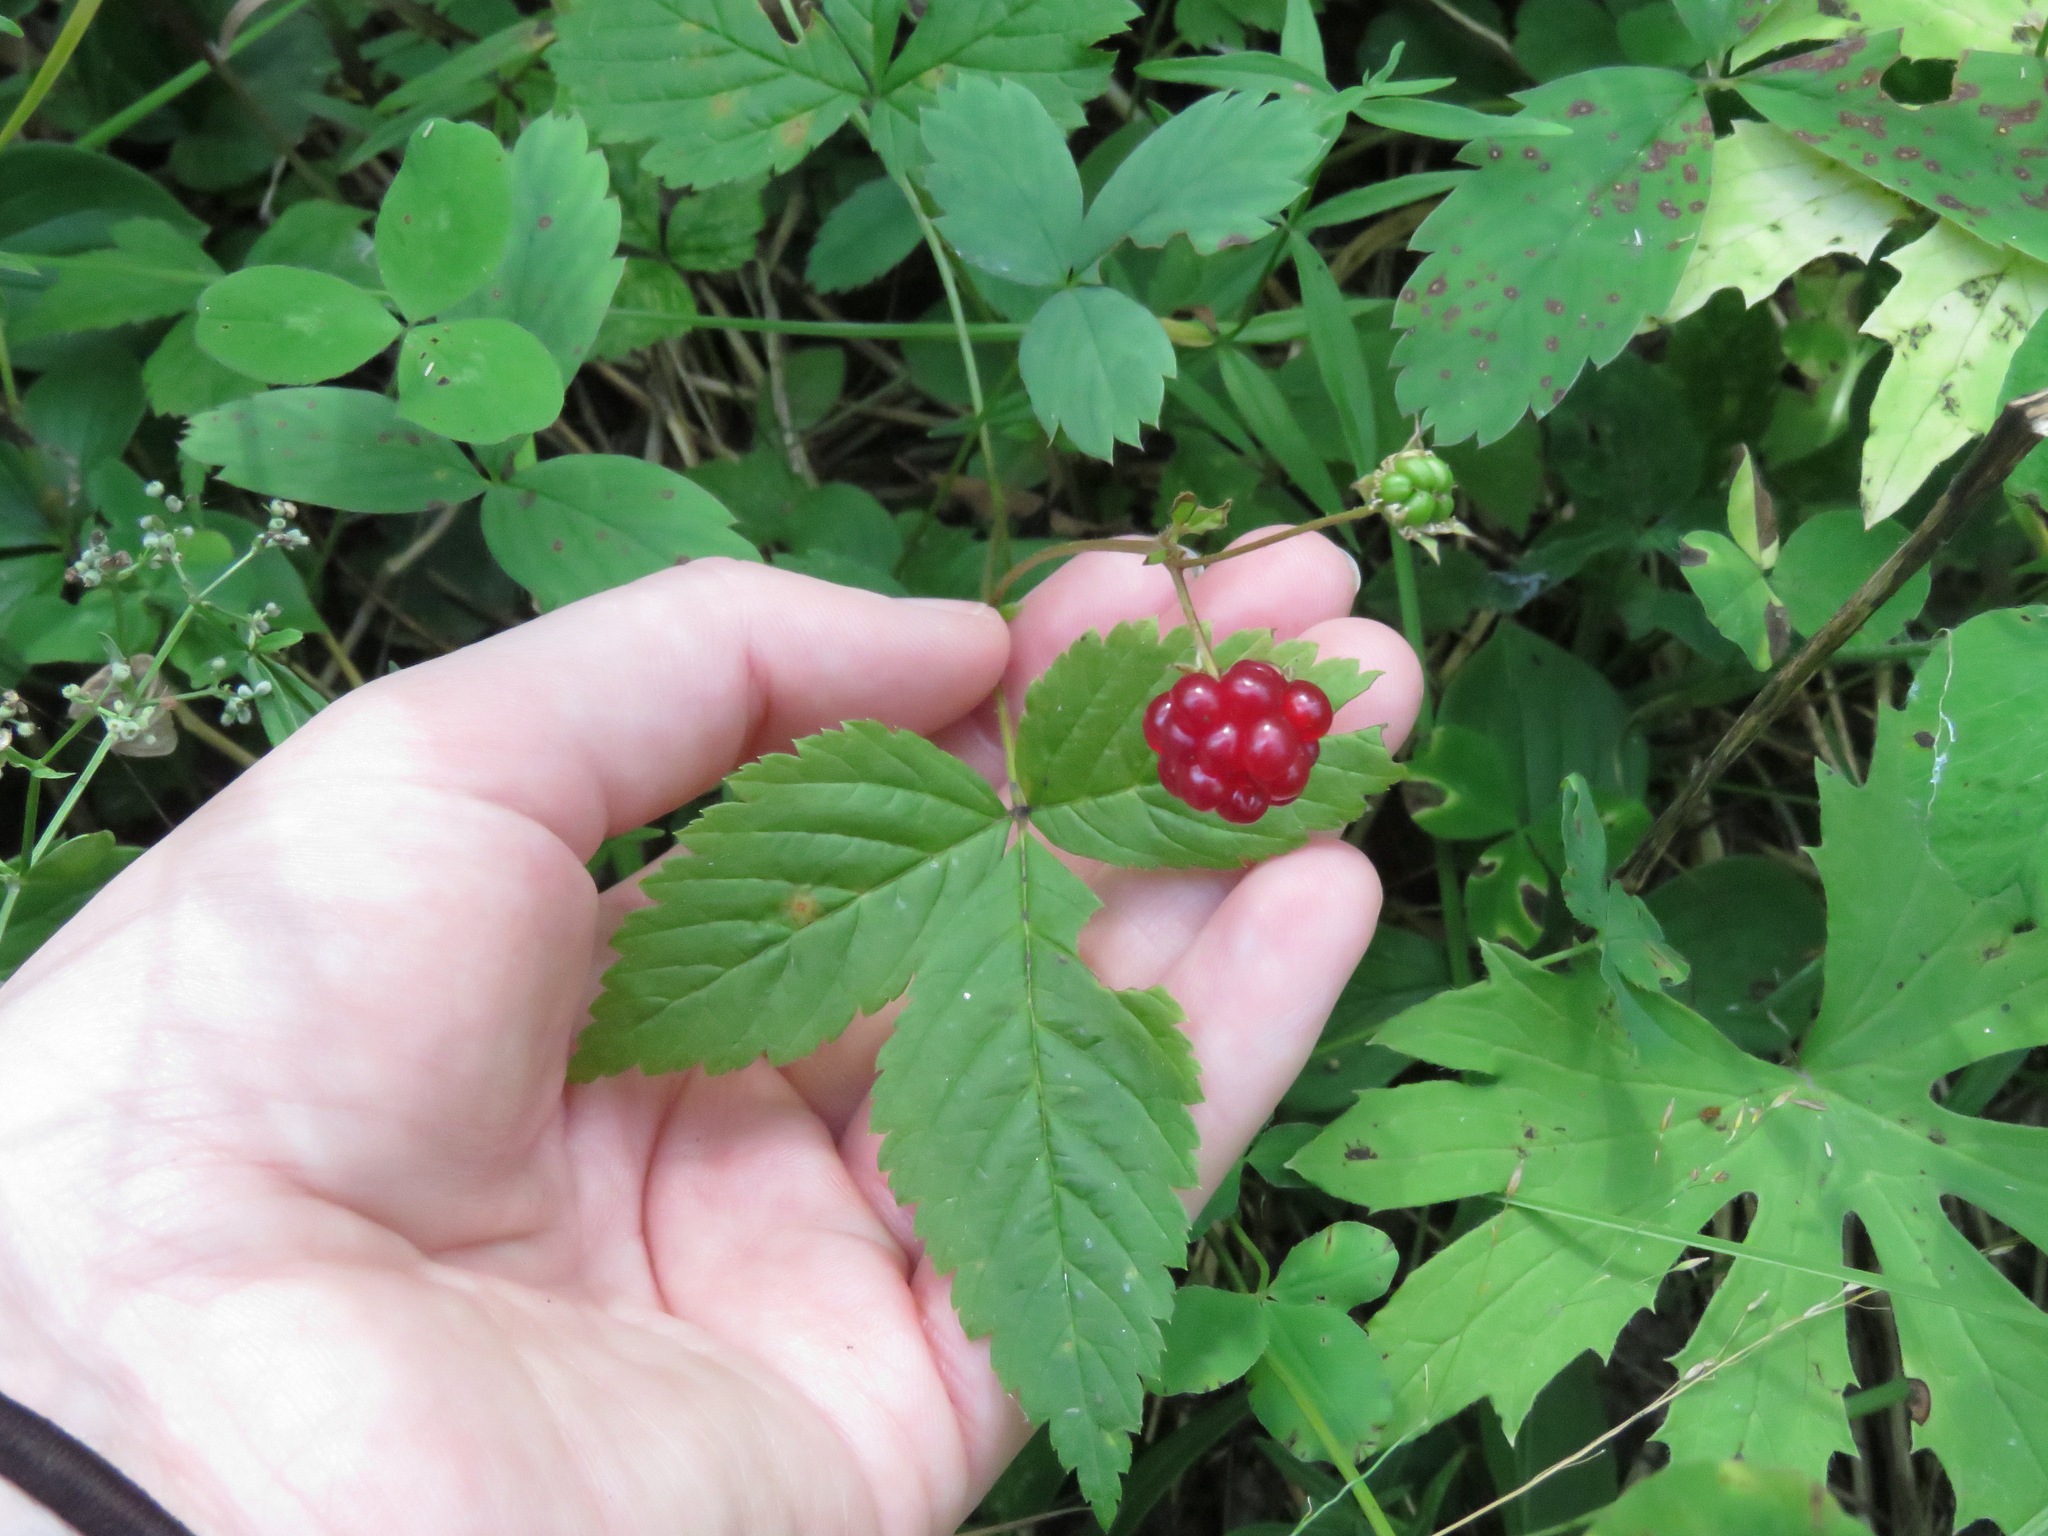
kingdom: Plantae
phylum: Tracheophyta
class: Magnoliopsida
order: Rosales
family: Rosaceae
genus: Rubus
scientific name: Rubus pubescens
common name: Dwarf raspberry
